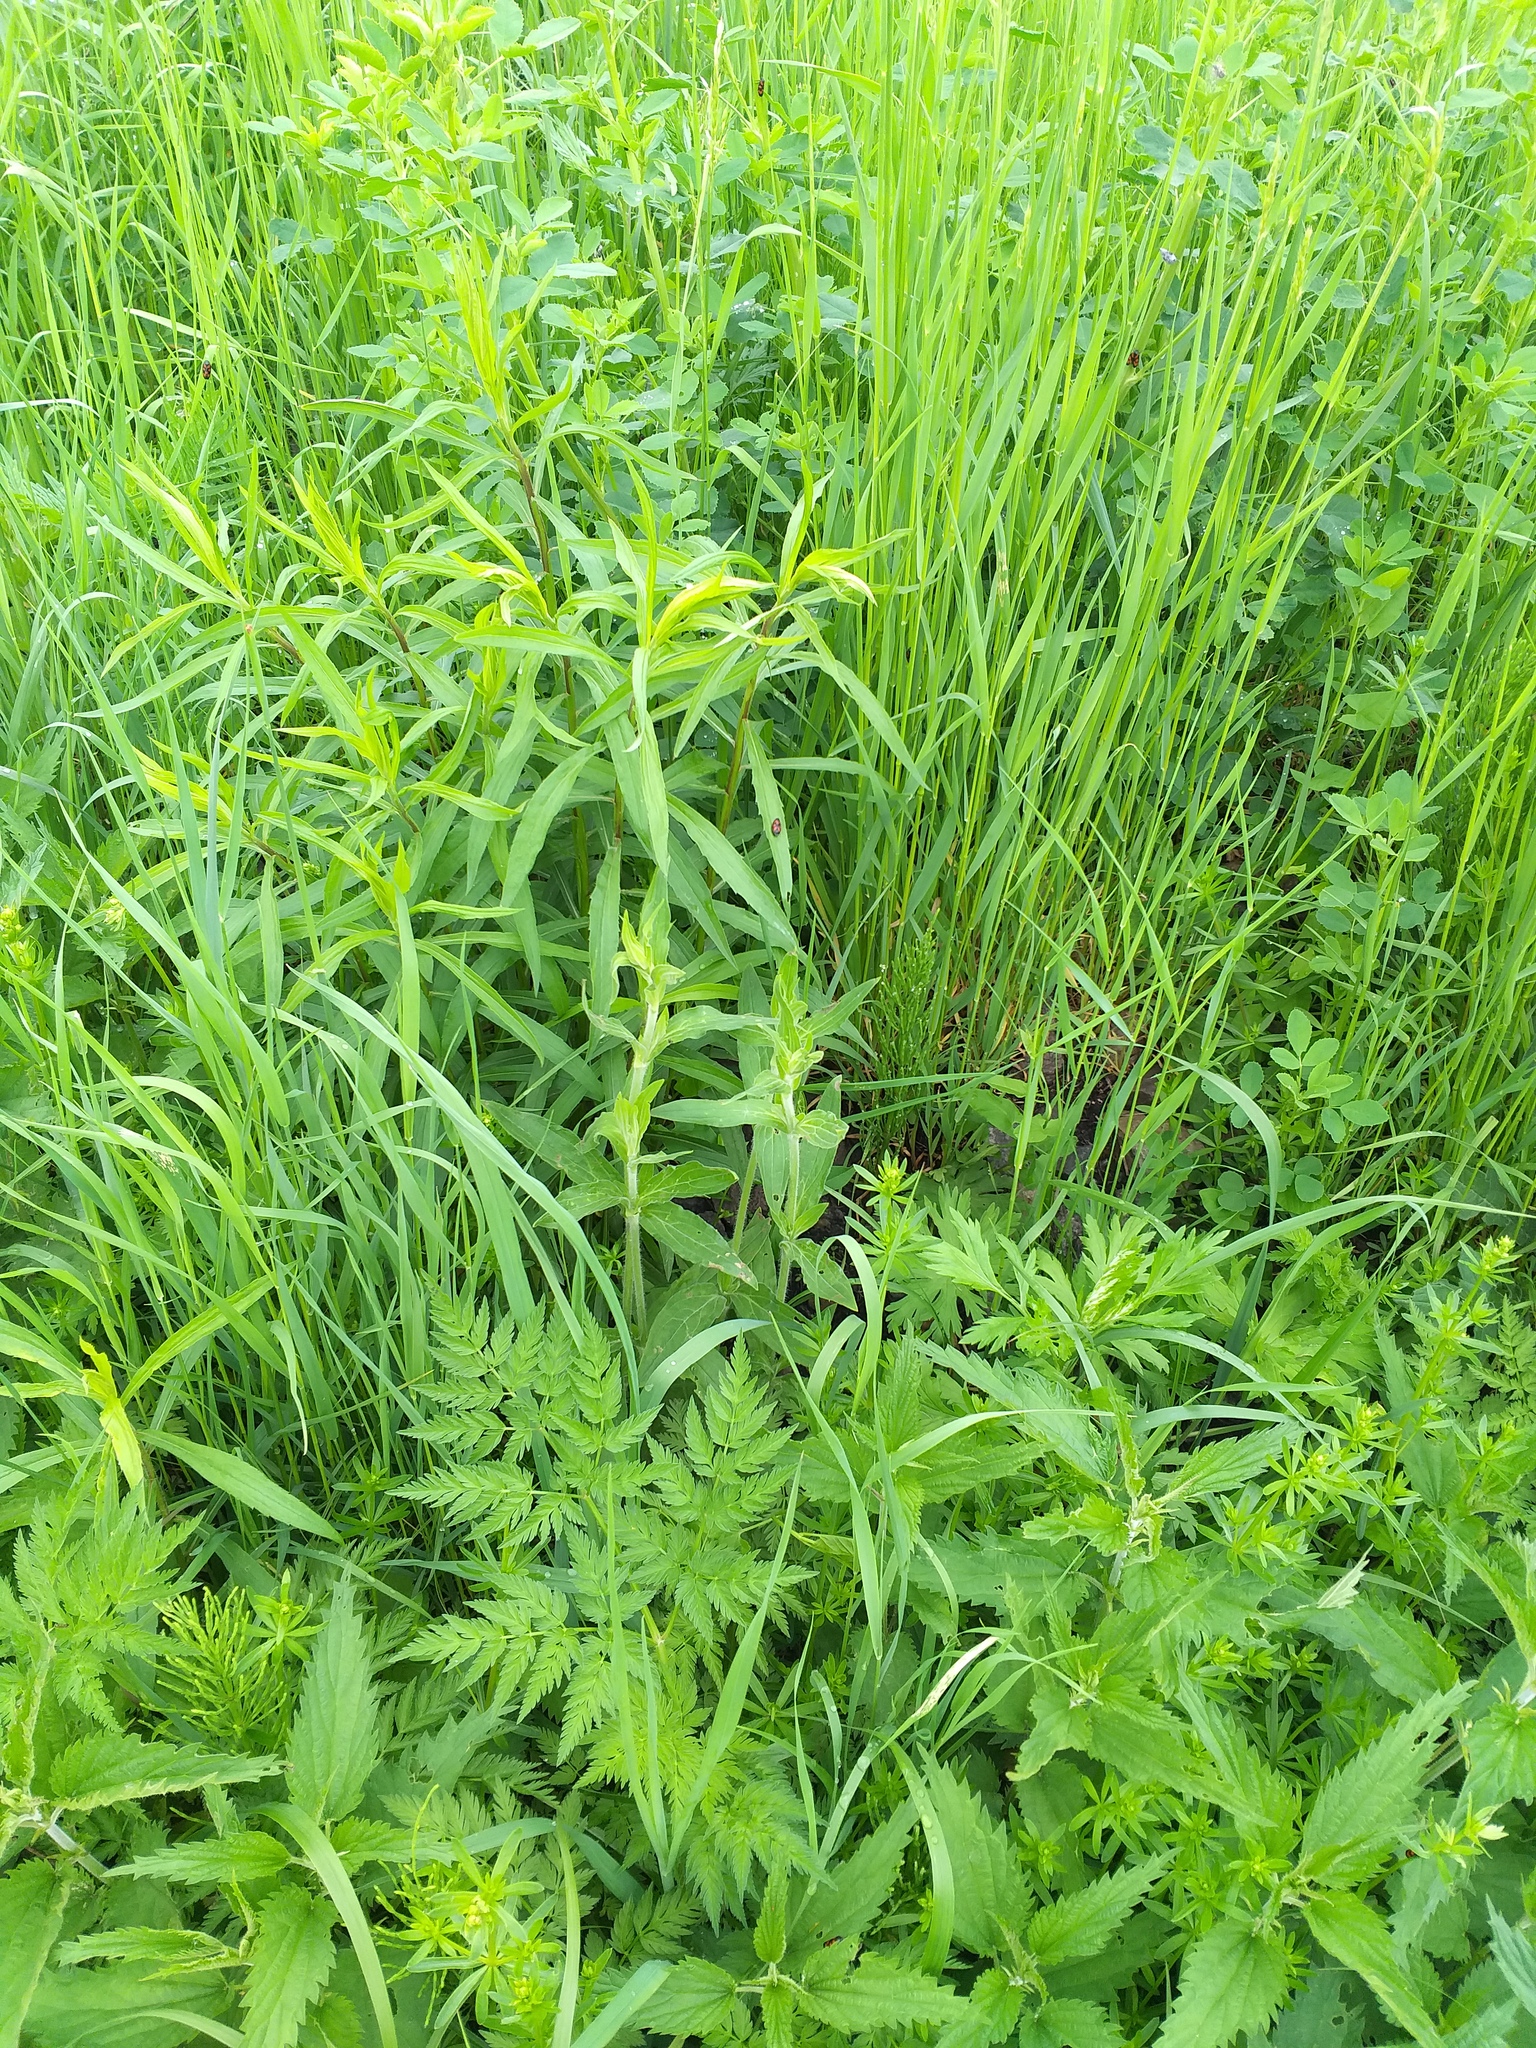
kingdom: Plantae
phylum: Tracheophyta
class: Magnoliopsida
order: Caryophyllales
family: Caryophyllaceae
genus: Silene
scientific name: Silene latifolia
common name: White campion
